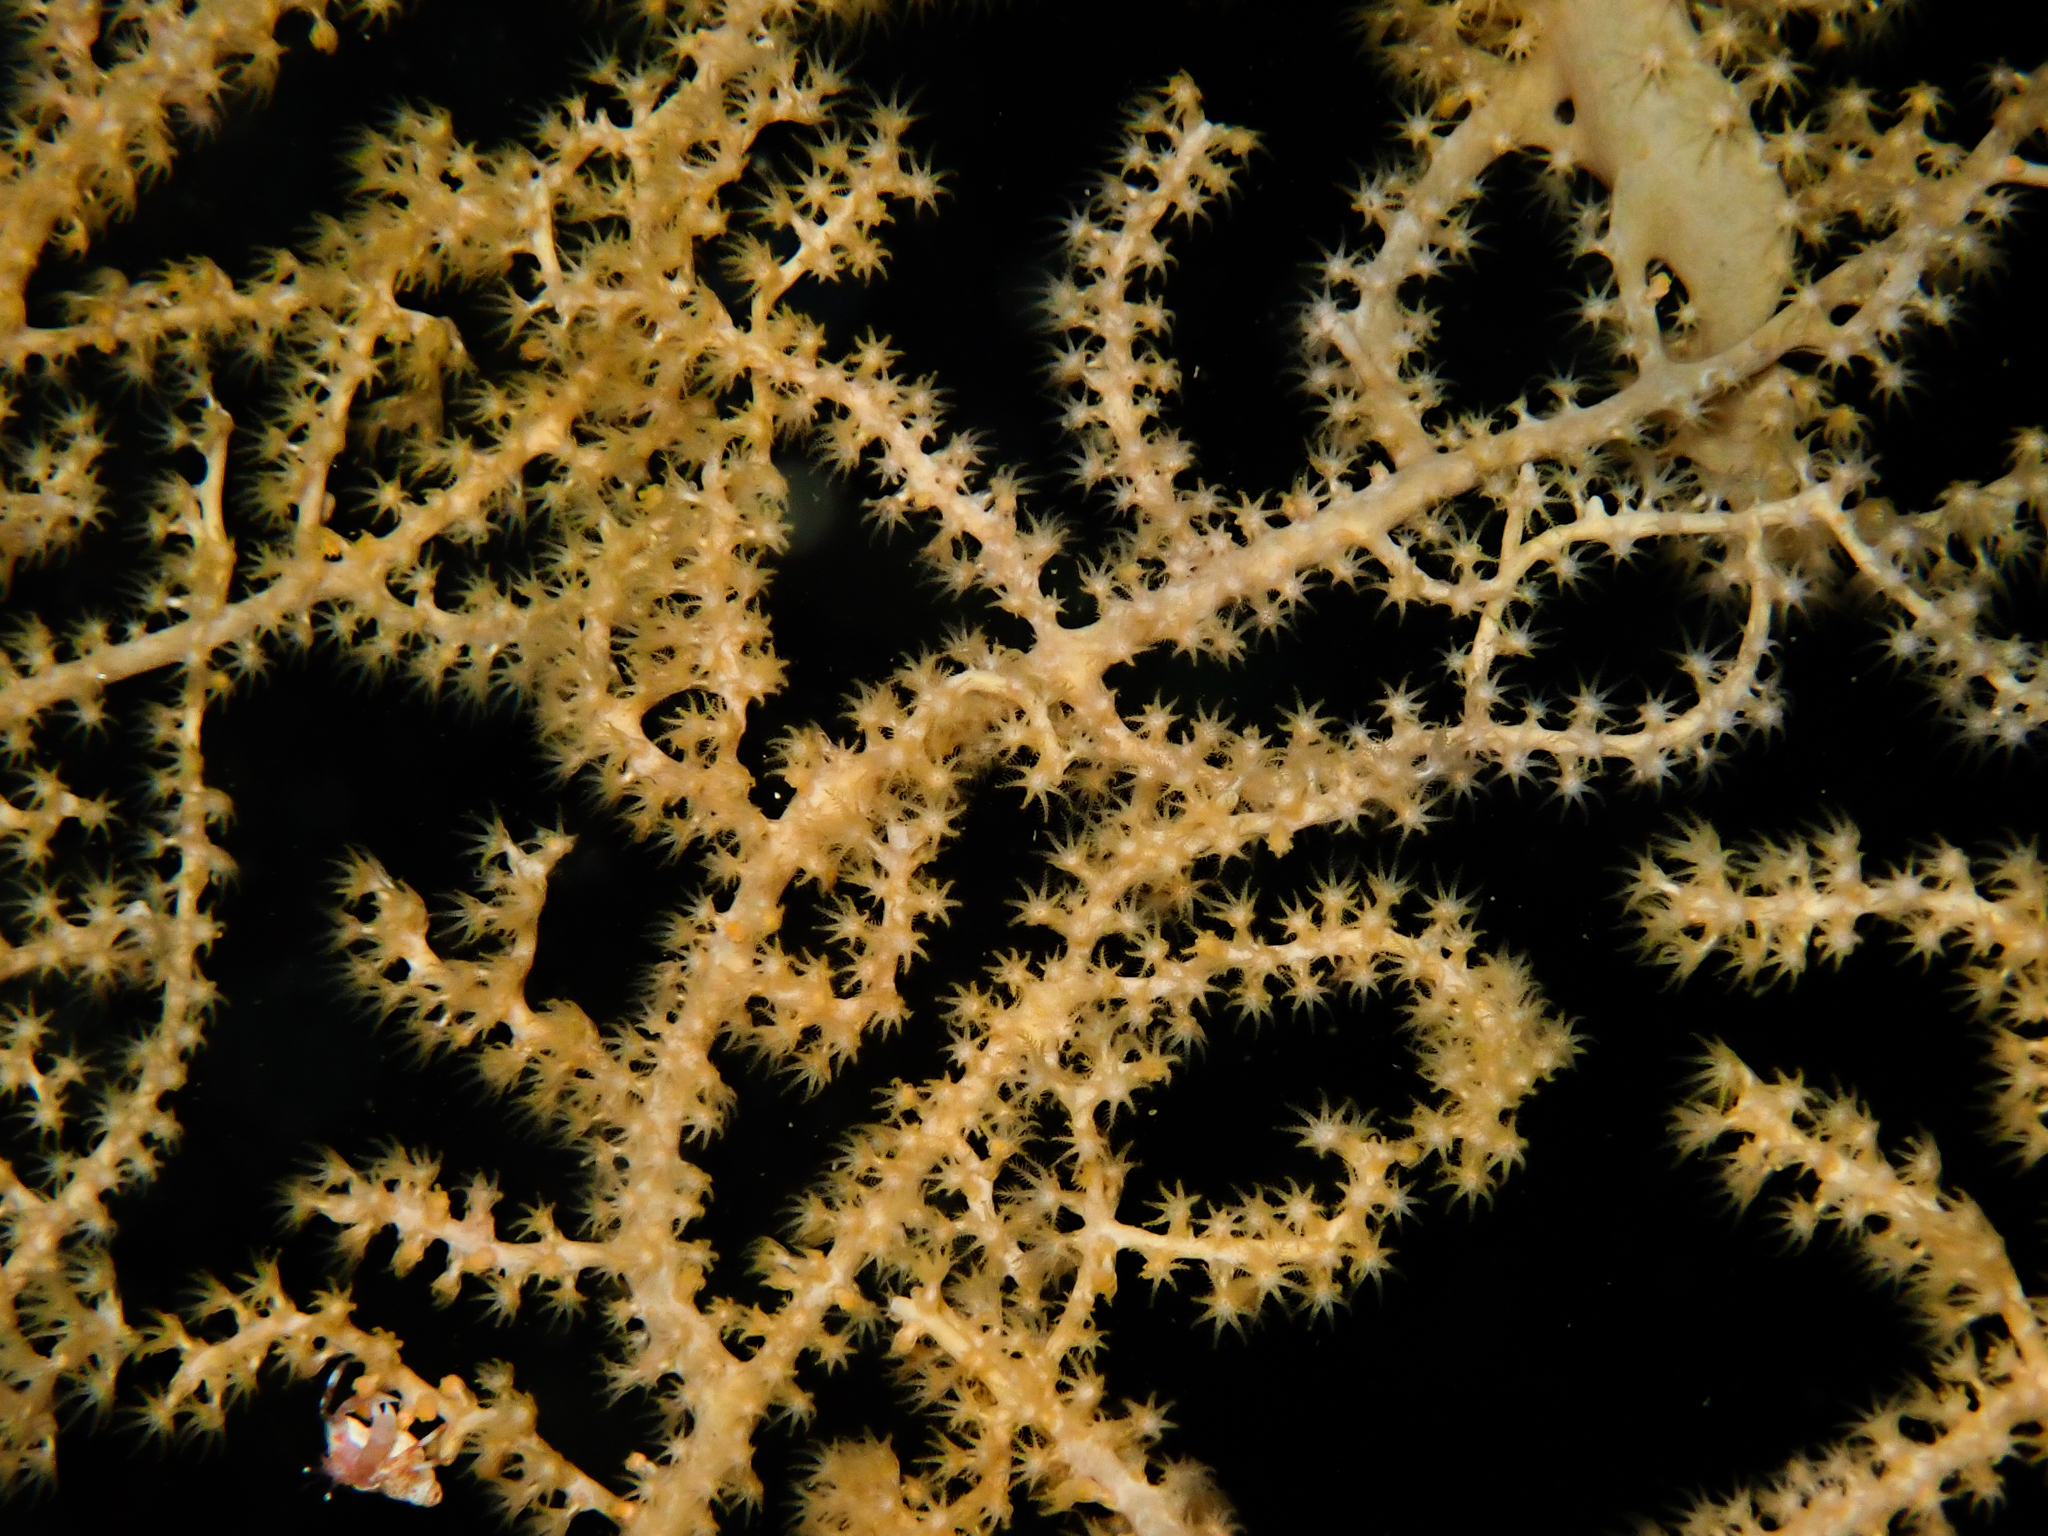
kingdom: Animalia
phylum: Cnidaria
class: Anthozoa
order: Malacalcyonacea
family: Paramuriceidae
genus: Paramuricea
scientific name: Paramuricea placomus
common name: Flattened sea fan coral
